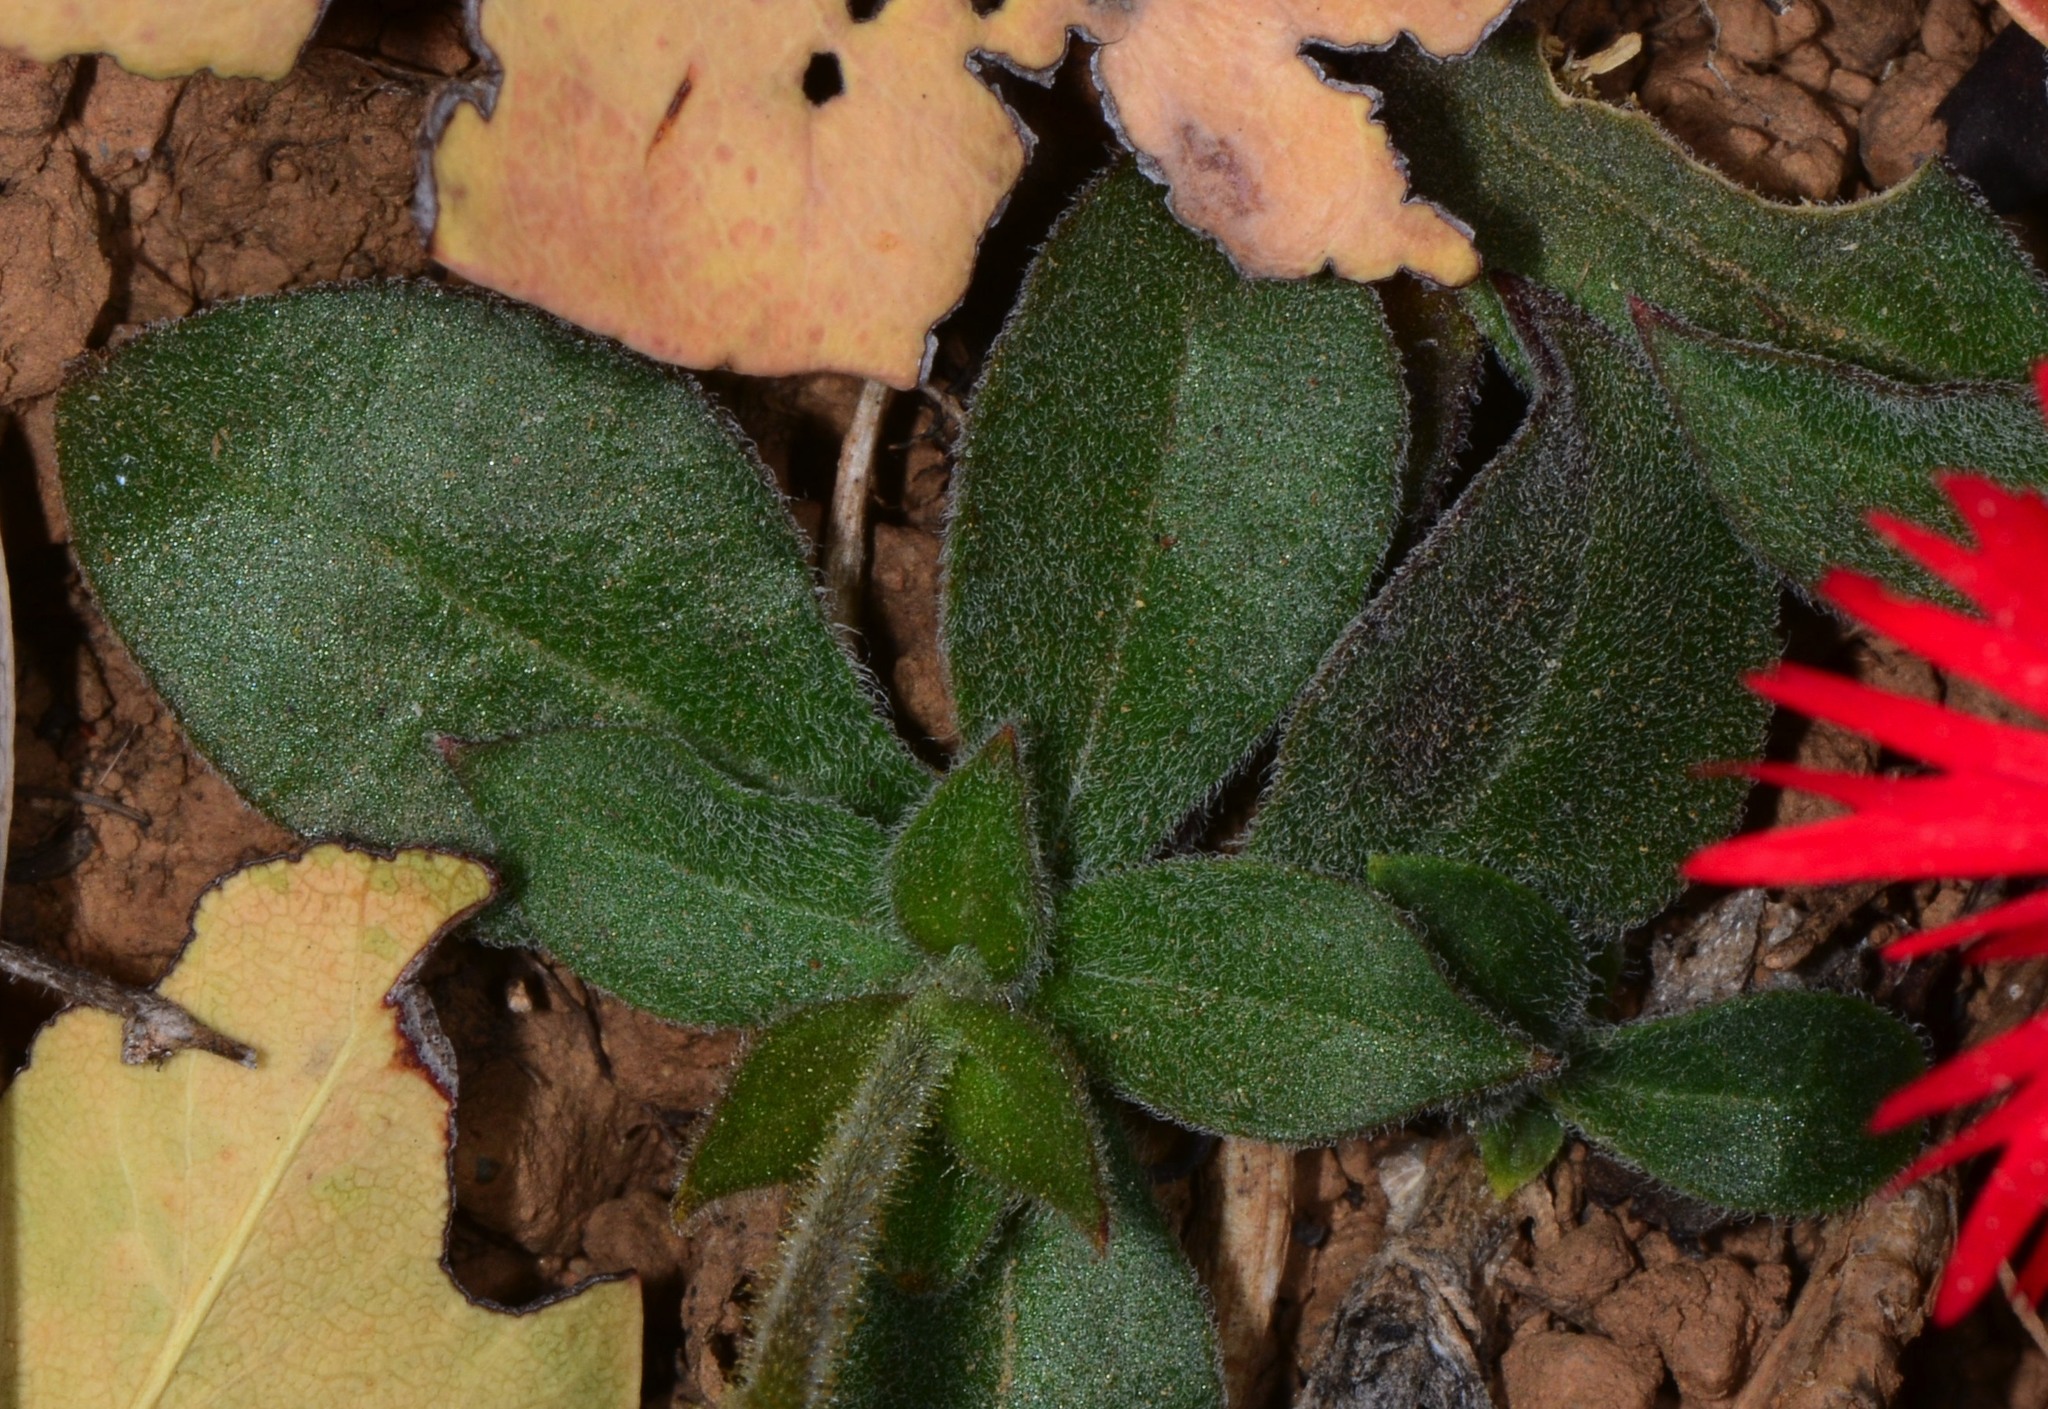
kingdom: Plantae
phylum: Tracheophyta
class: Magnoliopsida
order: Caryophyllales
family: Caryophyllaceae
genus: Silene
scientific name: Silene laciniata
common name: Indian-pink
